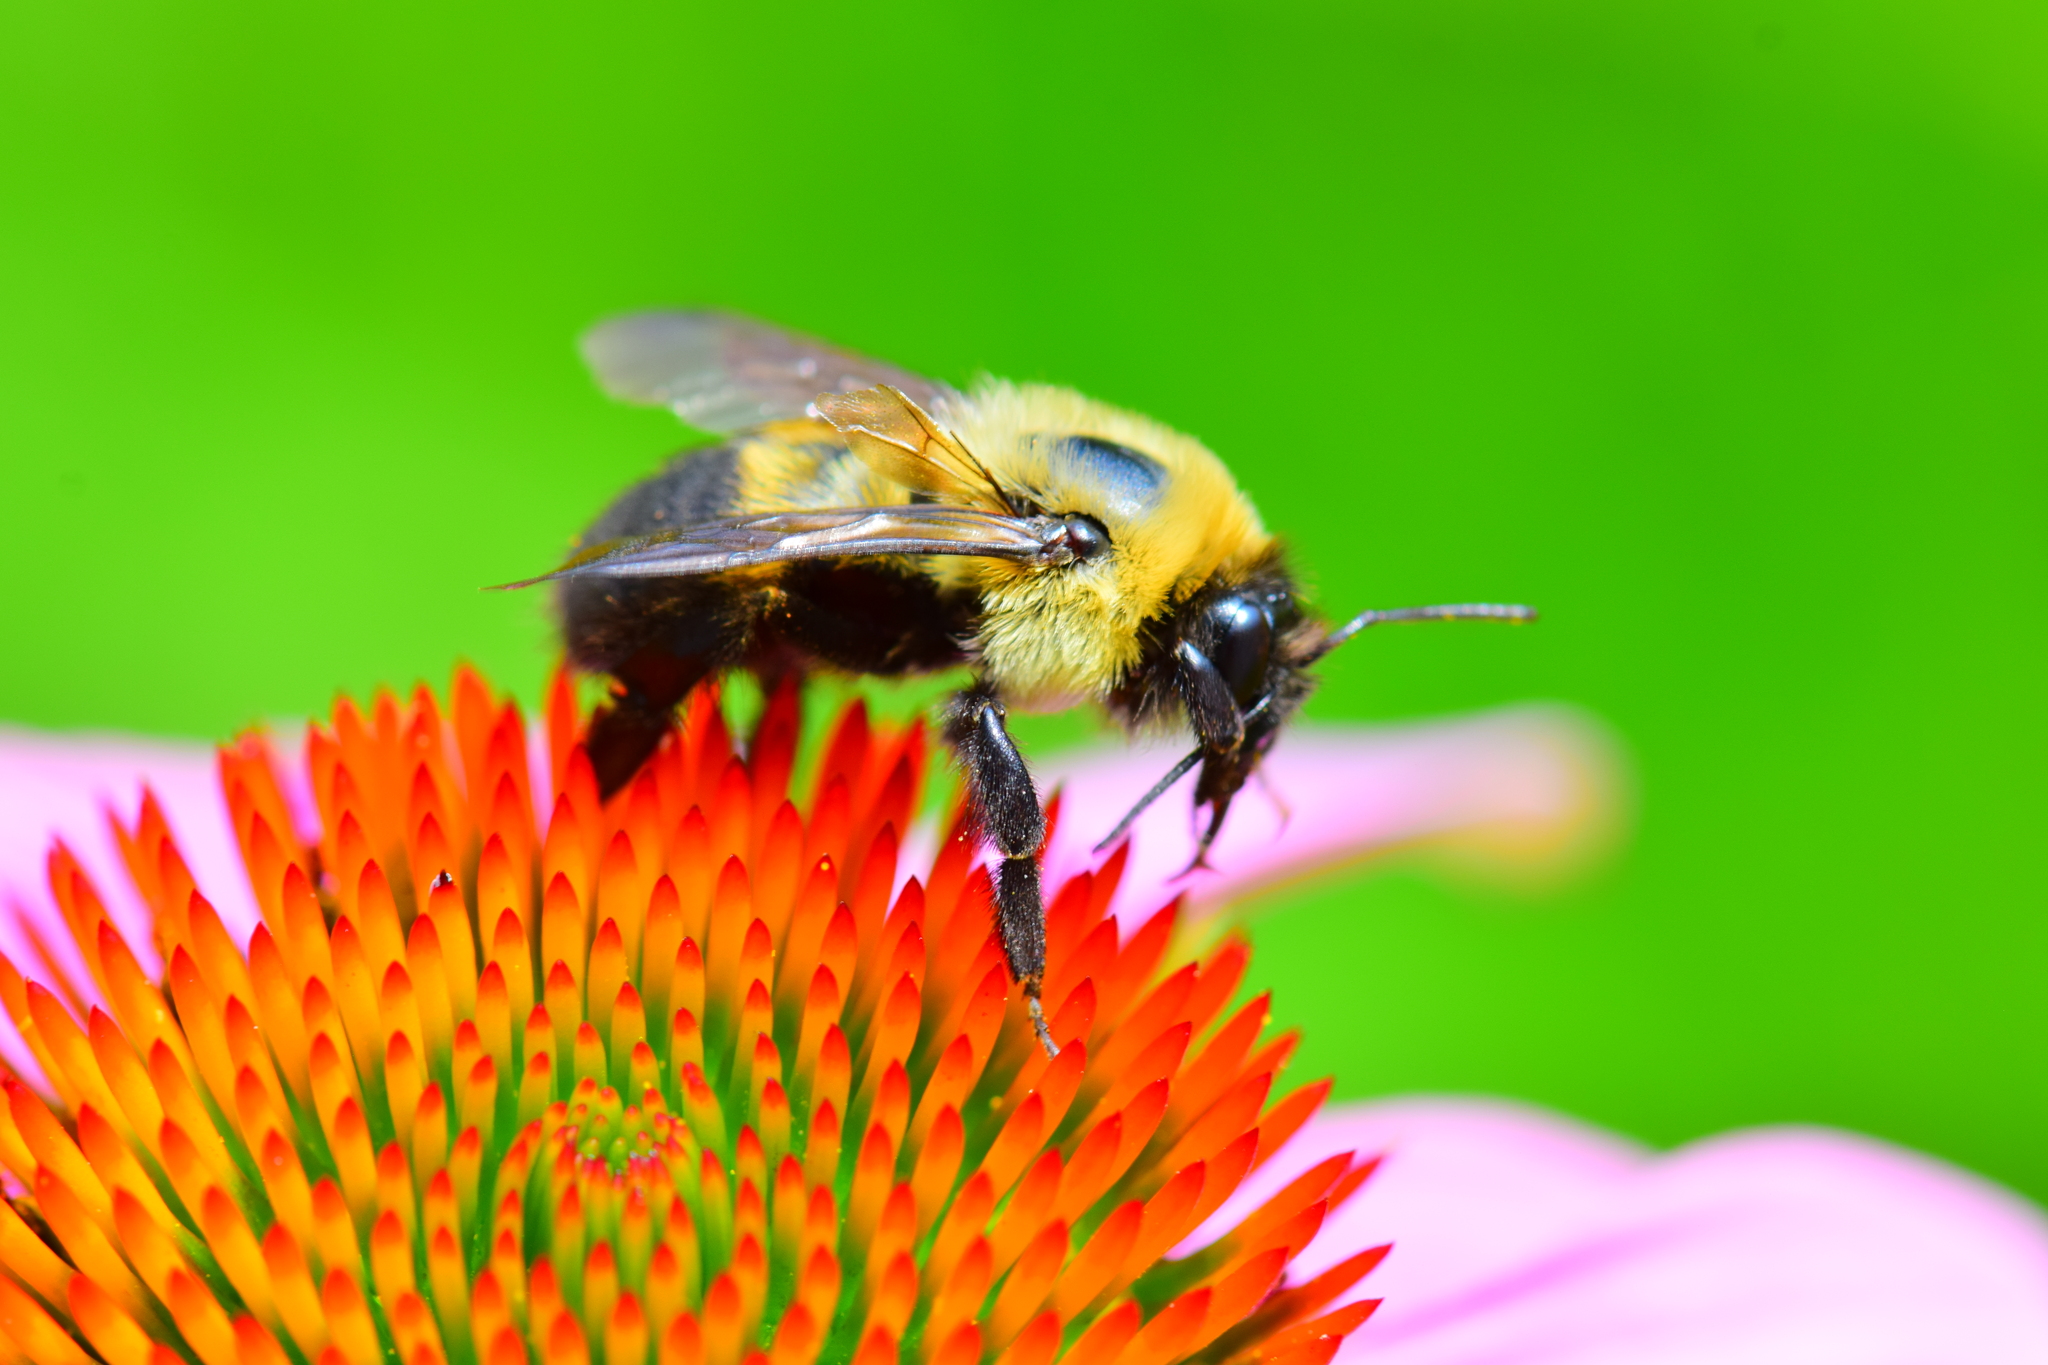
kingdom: Animalia
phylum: Arthropoda
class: Insecta
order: Hymenoptera
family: Apidae
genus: Bombus
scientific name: Bombus griseocollis
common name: Brown-belted bumble bee
